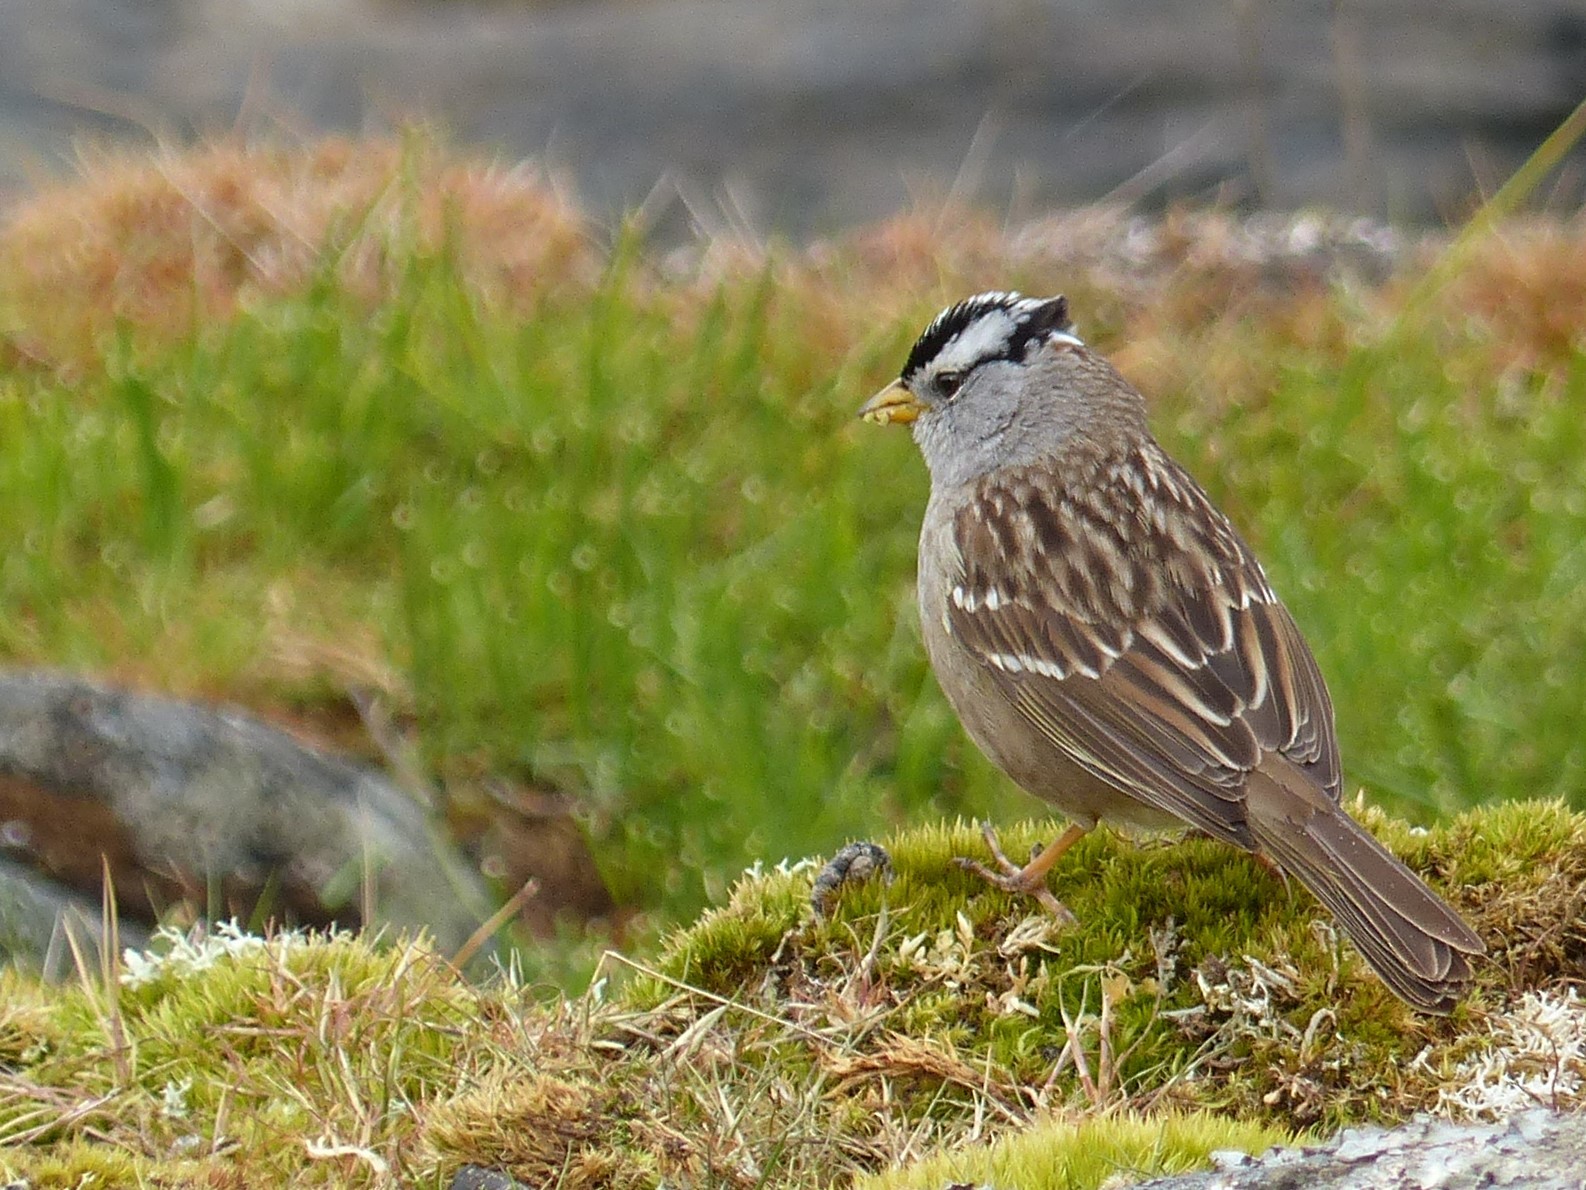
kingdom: Animalia
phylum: Chordata
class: Aves
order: Passeriformes
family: Passerellidae
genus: Zonotrichia
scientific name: Zonotrichia leucophrys
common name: White-crowned sparrow
